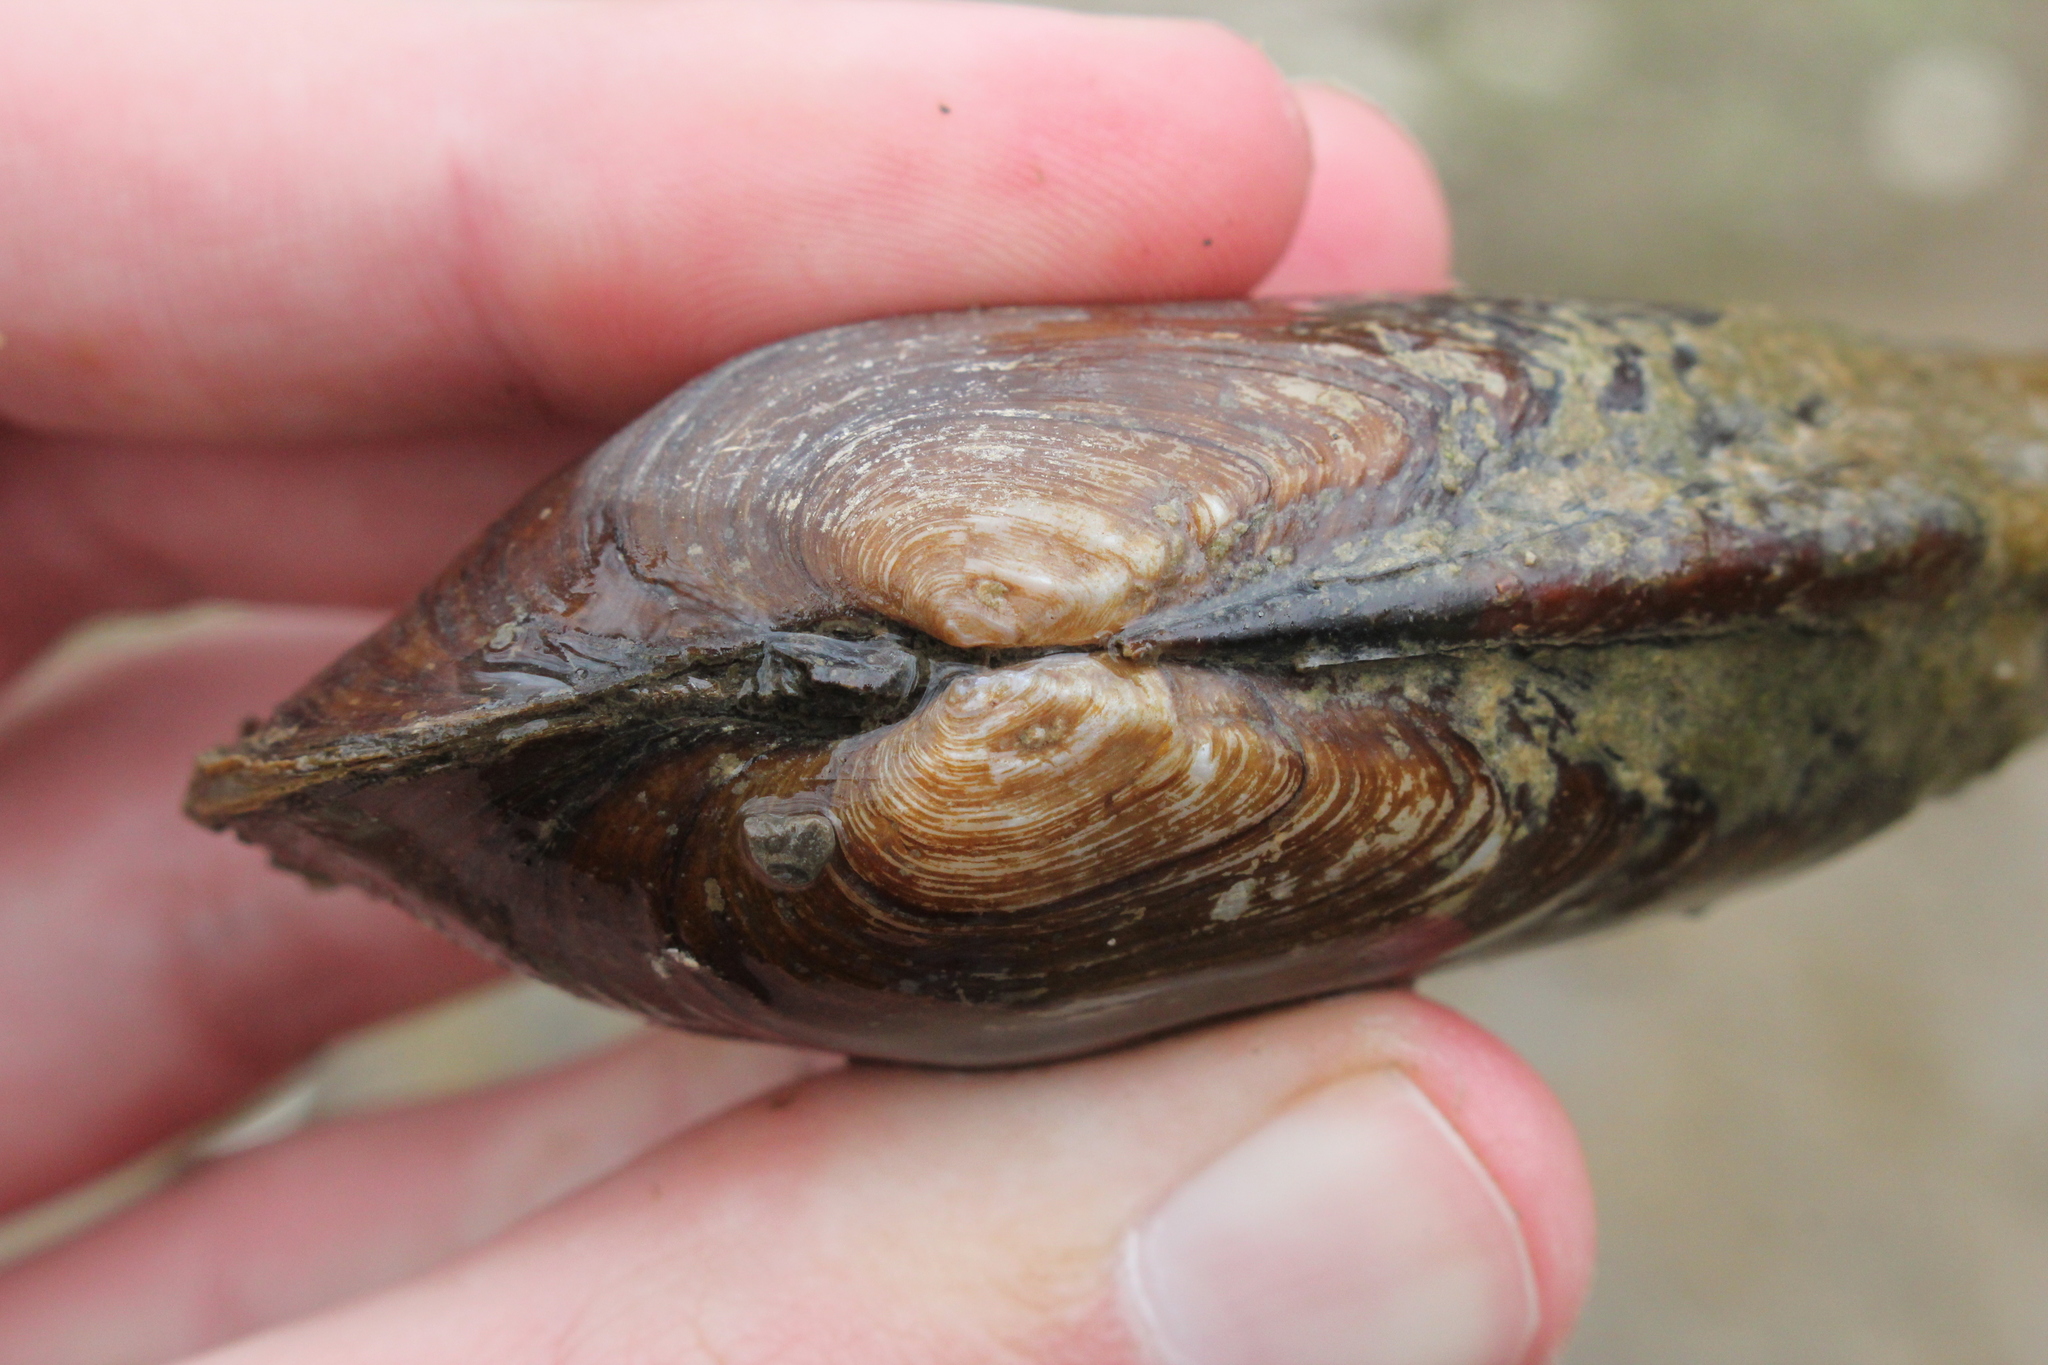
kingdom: Animalia
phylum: Mollusca
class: Bivalvia
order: Unionida
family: Unionidae
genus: Eurynia
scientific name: Eurynia dilatata
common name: Spike
